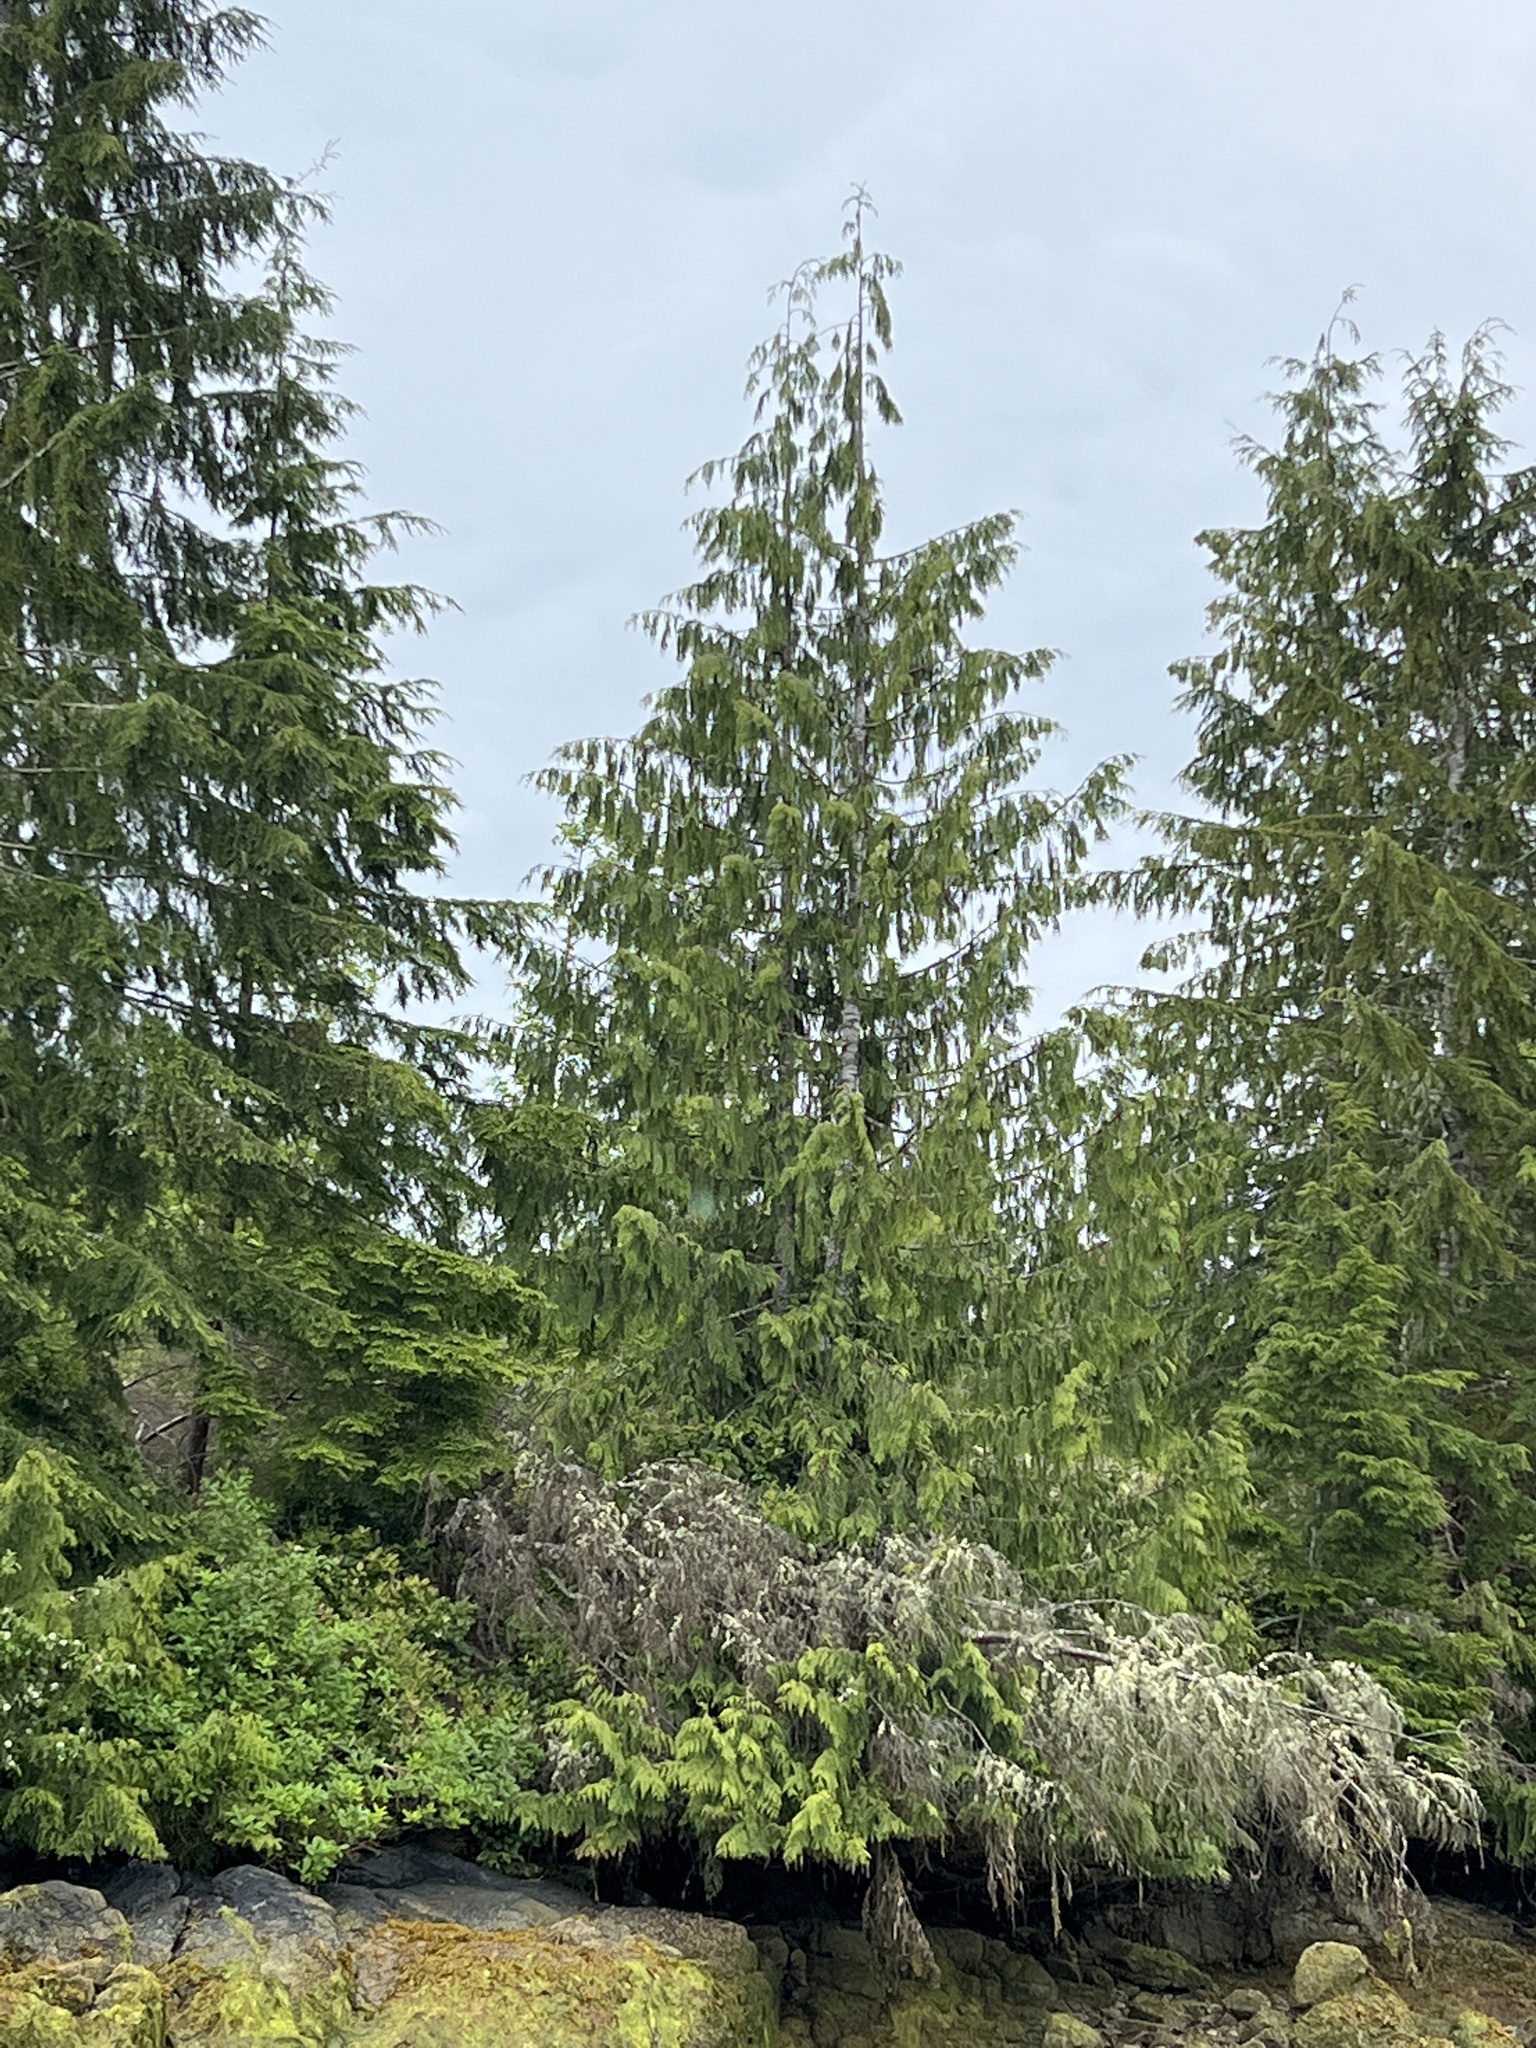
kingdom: Plantae
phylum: Tracheophyta
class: Pinopsida
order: Pinales
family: Cupressaceae
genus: Thuja
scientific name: Thuja plicata
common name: Western red-cedar
